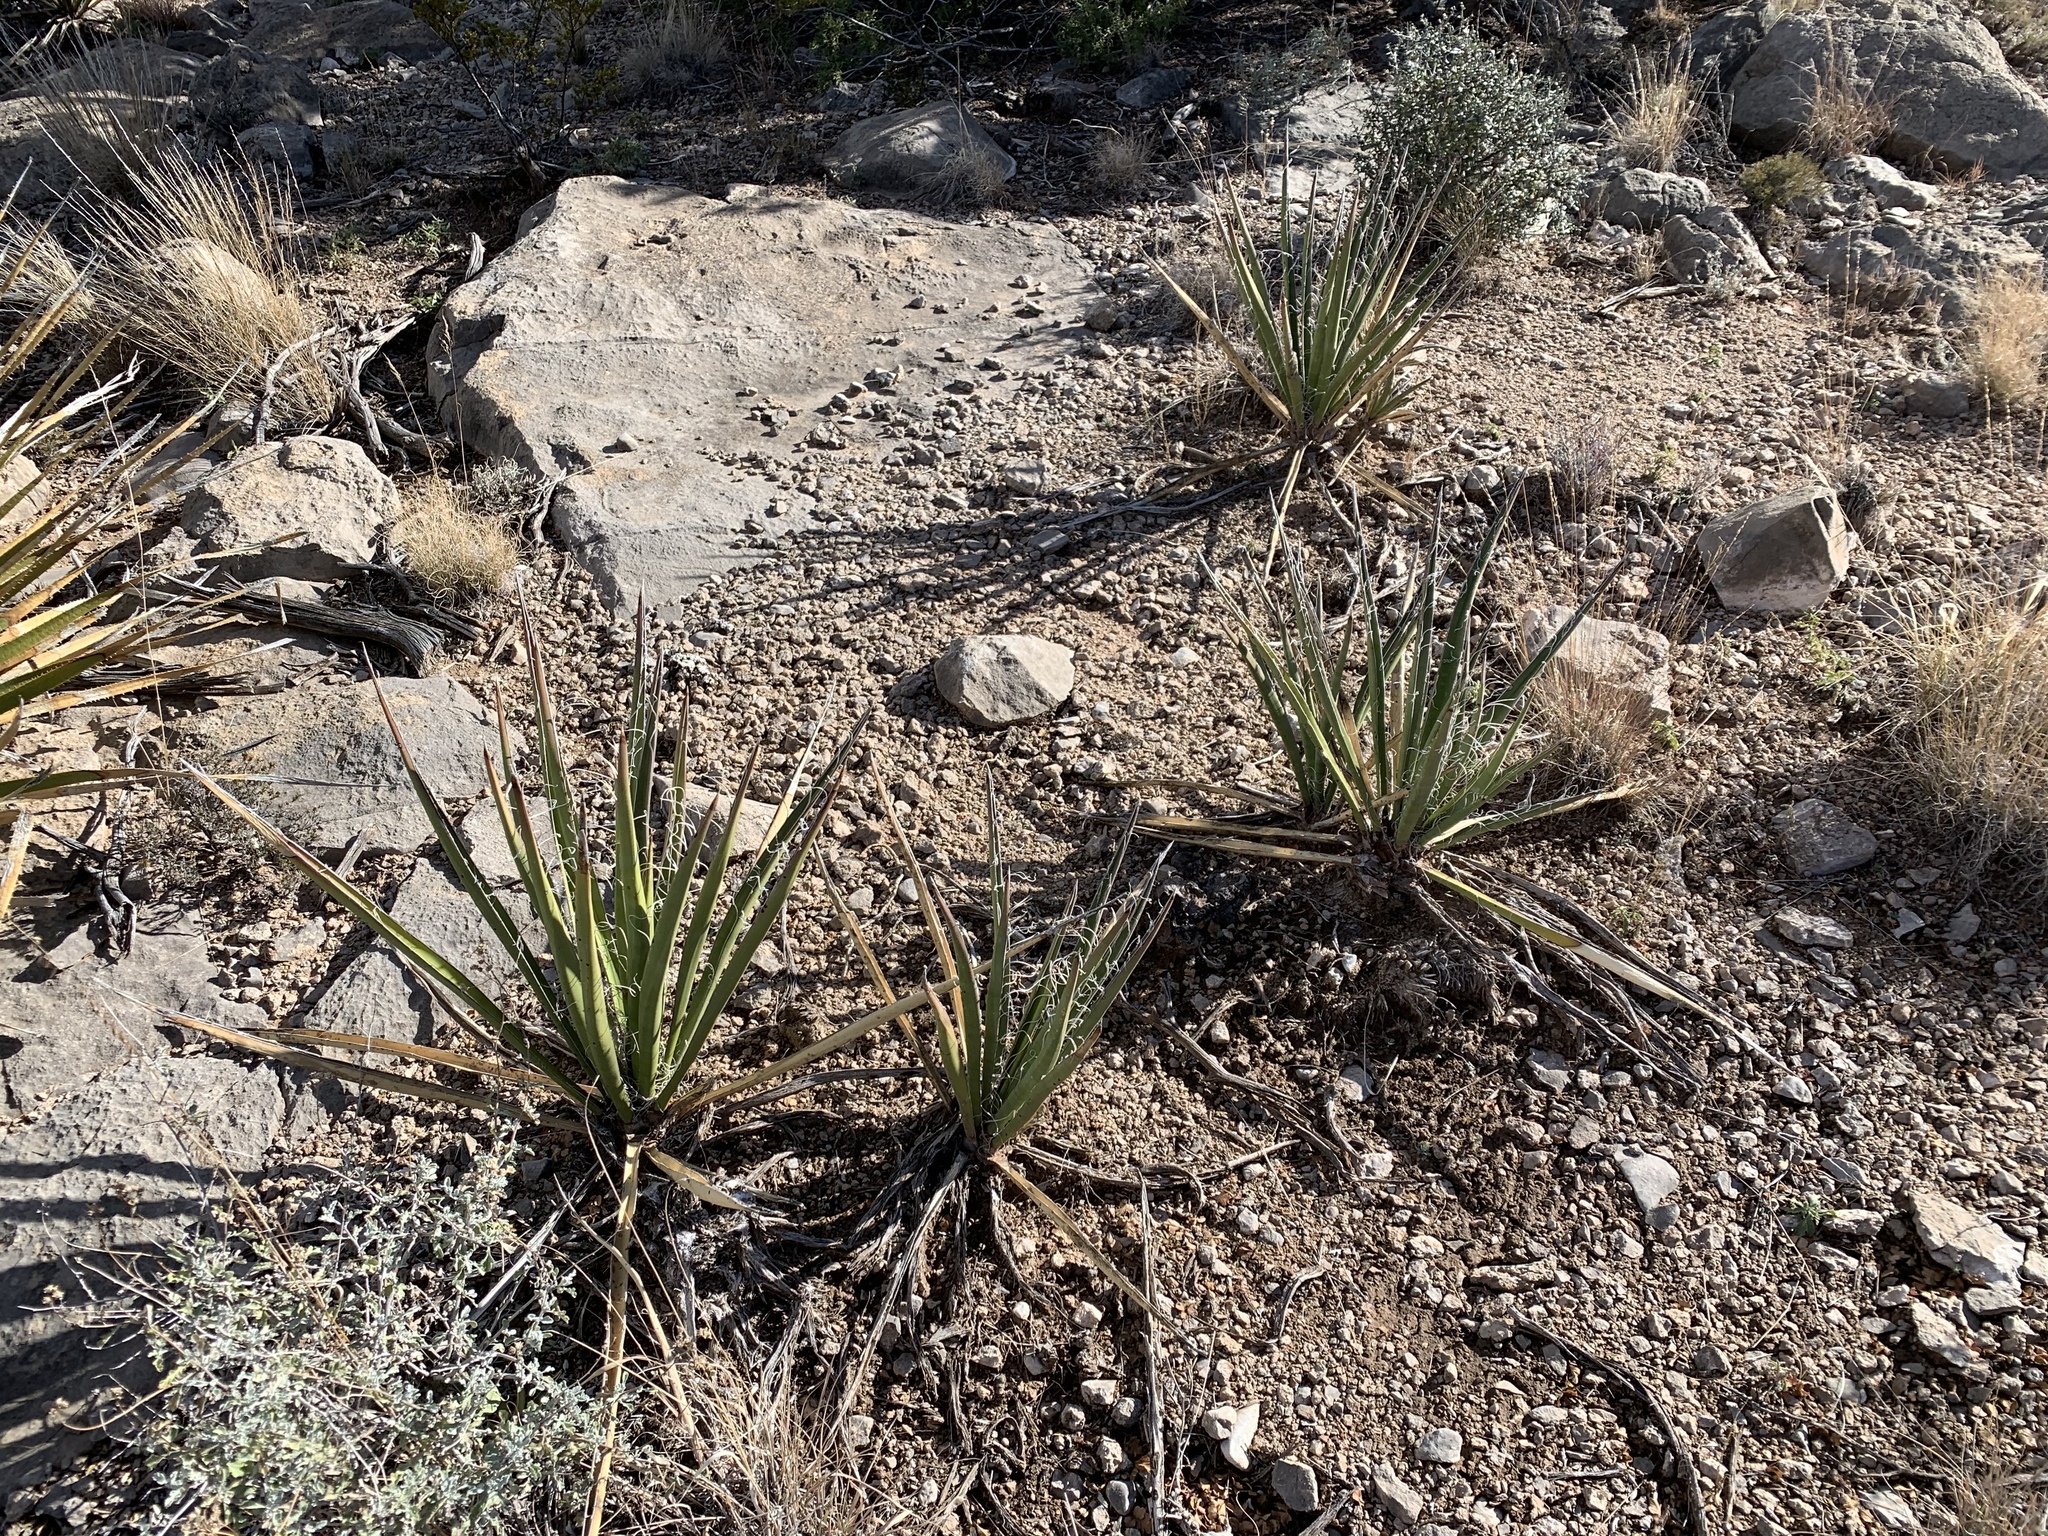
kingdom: Plantae
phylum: Tracheophyta
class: Liliopsida
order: Asparagales
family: Asparagaceae
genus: Yucca
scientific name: Yucca baccata
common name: Banana yucca
